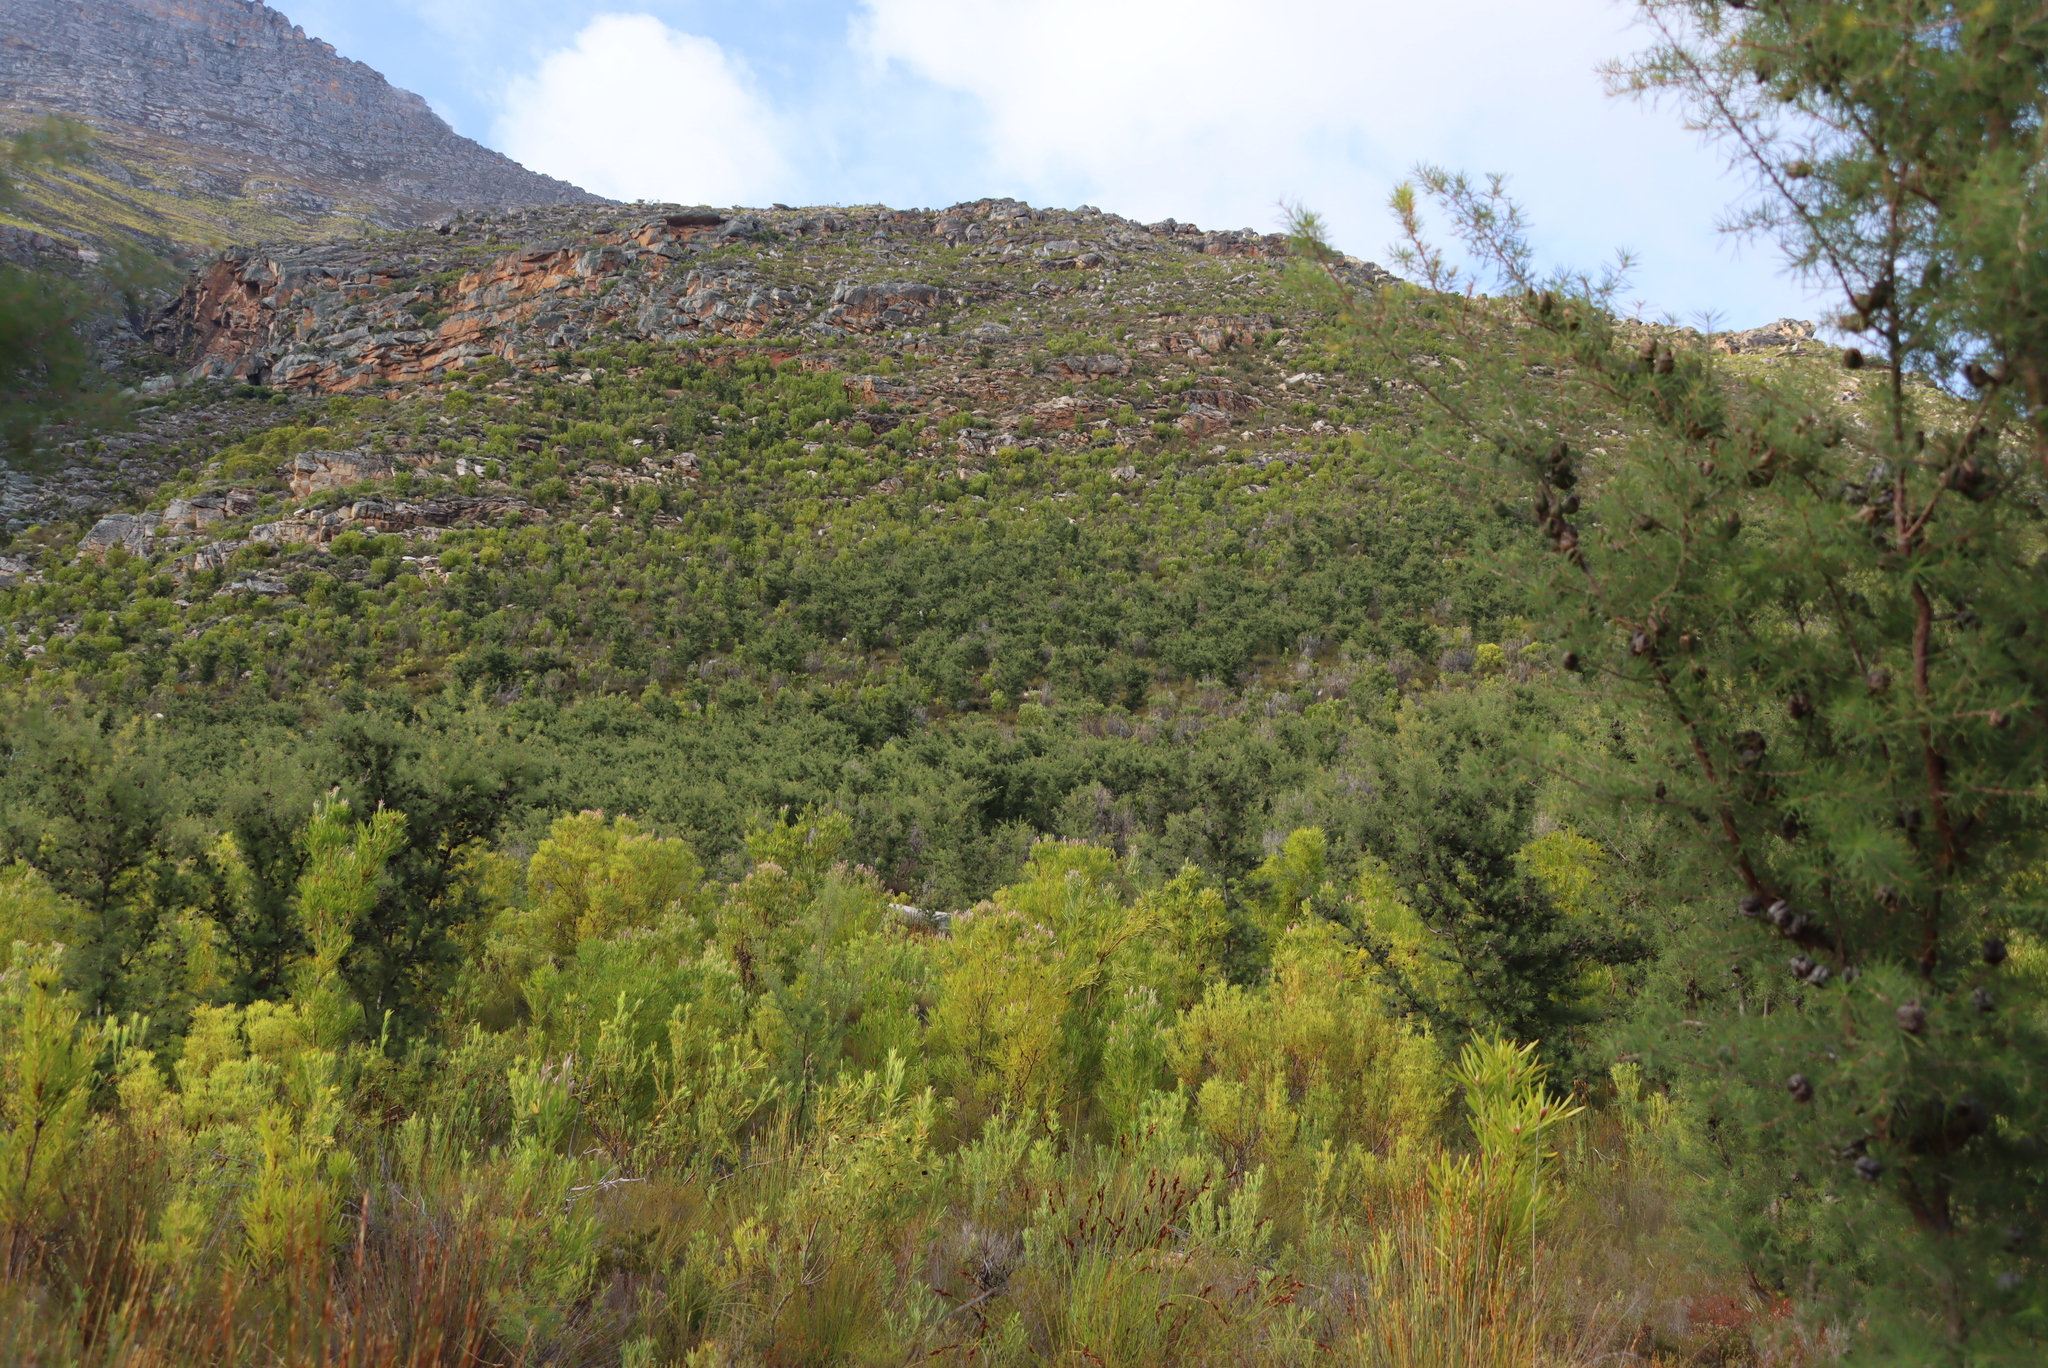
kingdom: Plantae
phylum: Tracheophyta
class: Magnoliopsida
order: Proteales
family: Proteaceae
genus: Hakea
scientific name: Hakea sericea
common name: Needle bush
